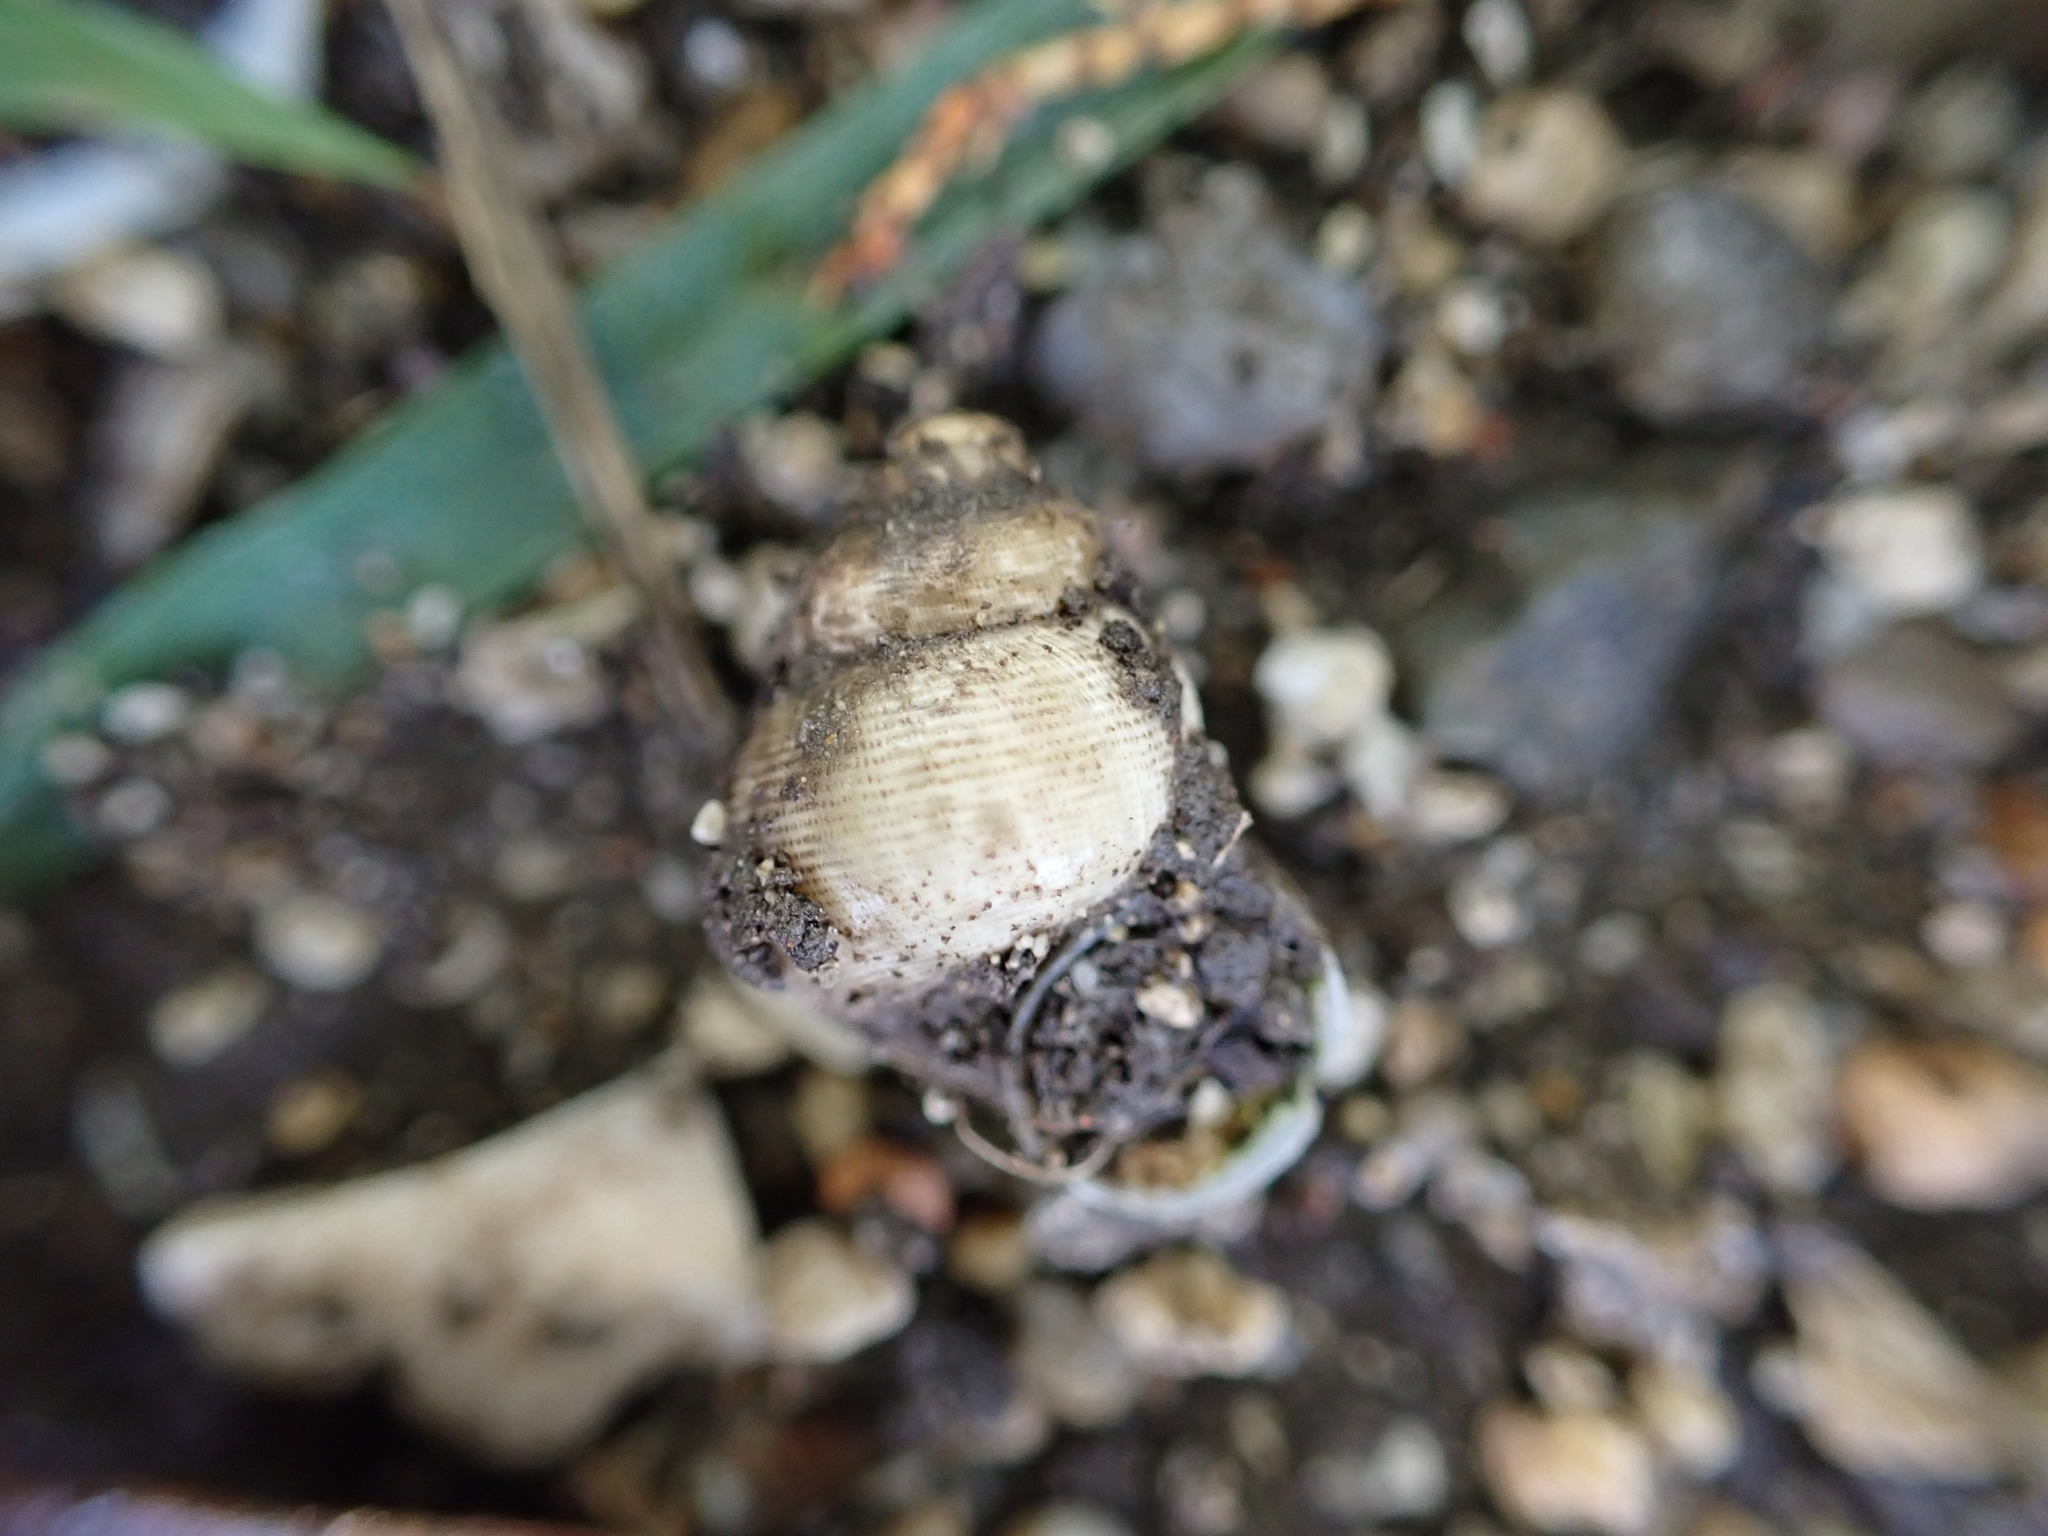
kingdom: Animalia
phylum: Mollusca
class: Gastropoda
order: Littorinimorpha
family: Pomatiidae
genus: Pomatias
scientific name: Pomatias elegans
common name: Red-mouthed snail
